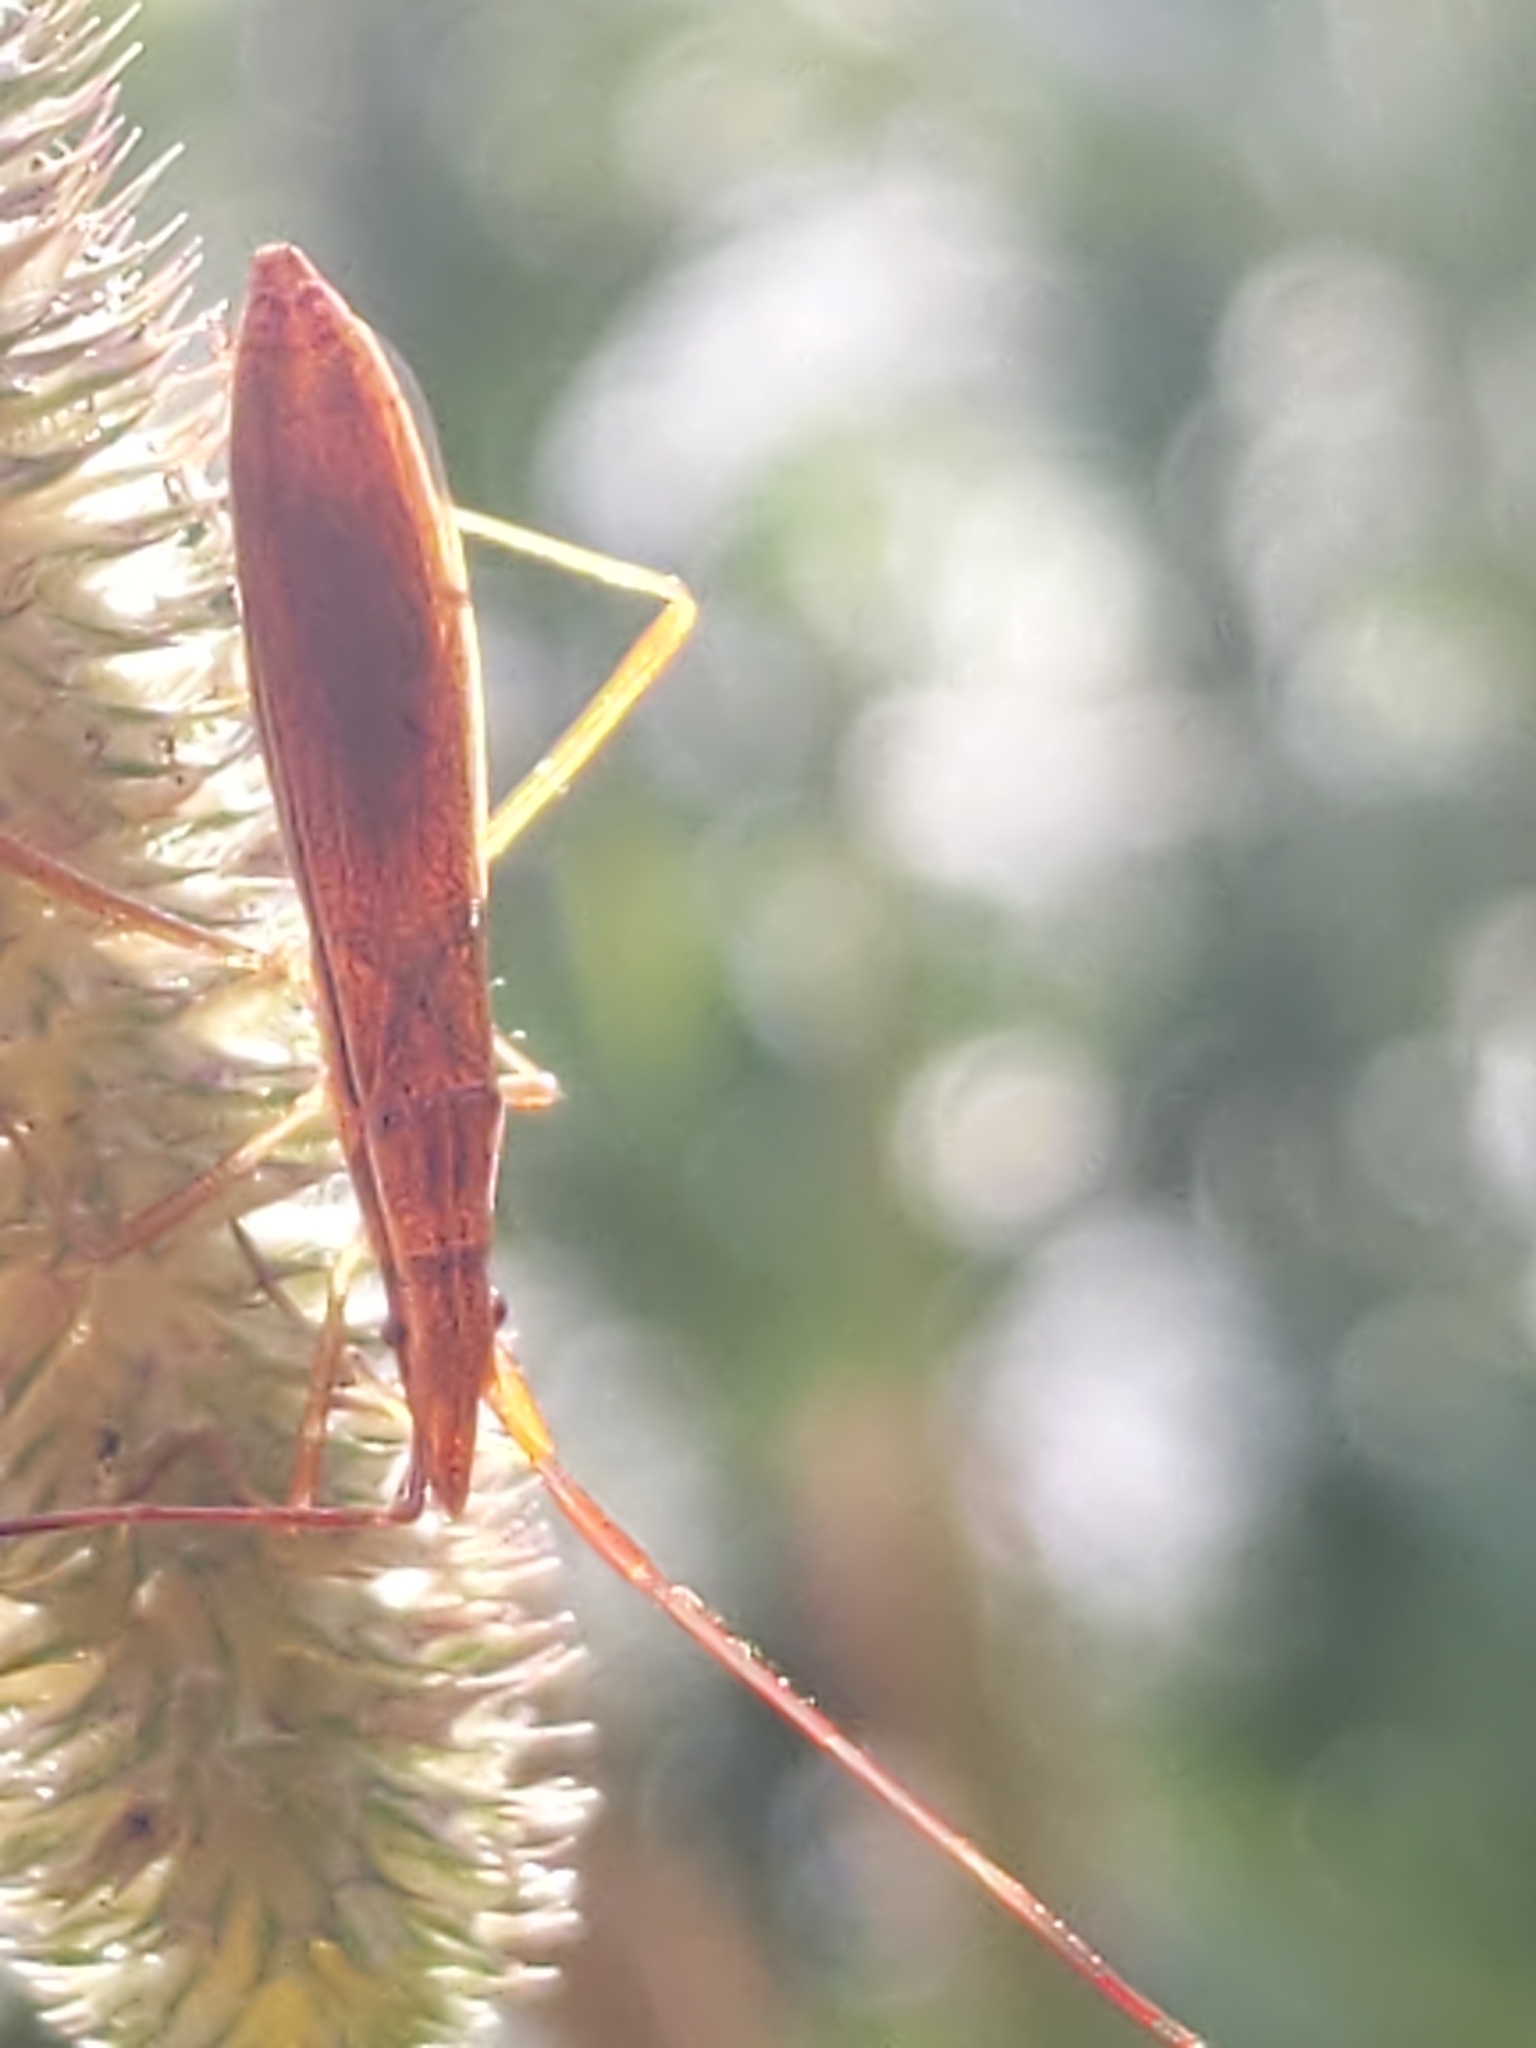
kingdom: Animalia
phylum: Arthropoda
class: Insecta
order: Hemiptera
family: Alydidae
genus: Protenor
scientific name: Protenor belfragei
